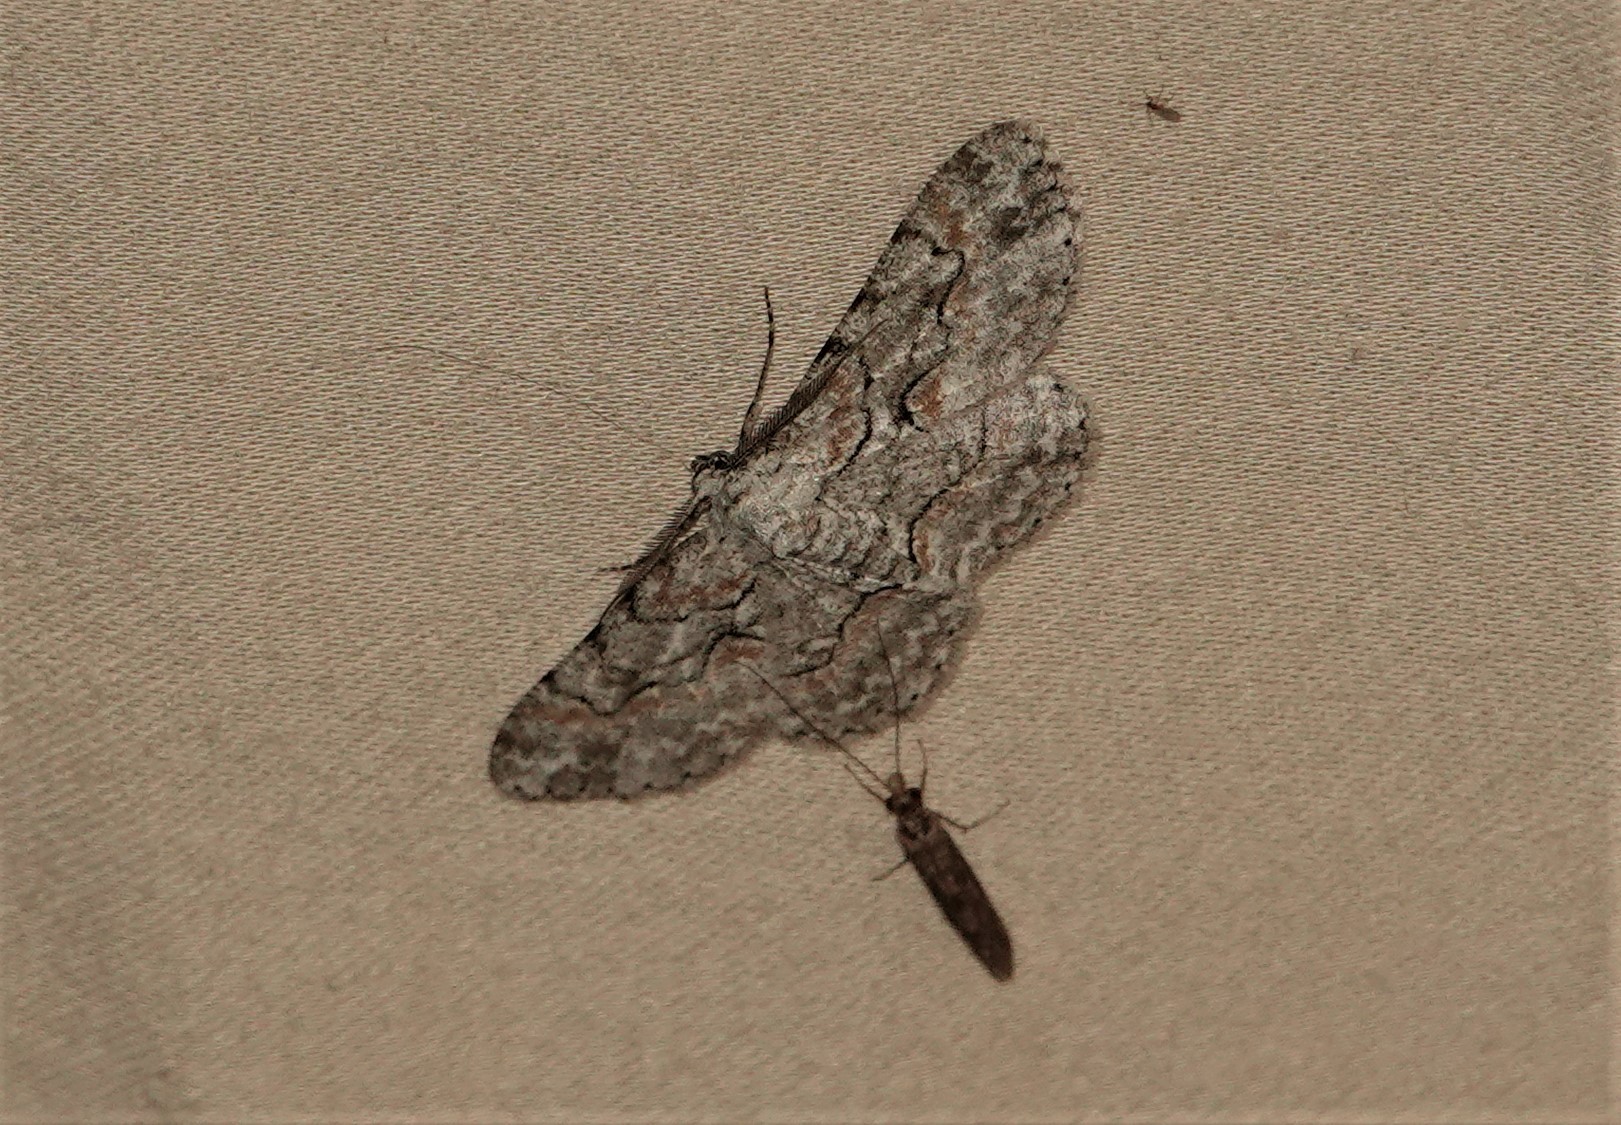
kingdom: Animalia
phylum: Arthropoda
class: Insecta
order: Lepidoptera
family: Geometridae
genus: Iridopsis
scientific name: Iridopsis defectaria
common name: Brown-shaded gray
